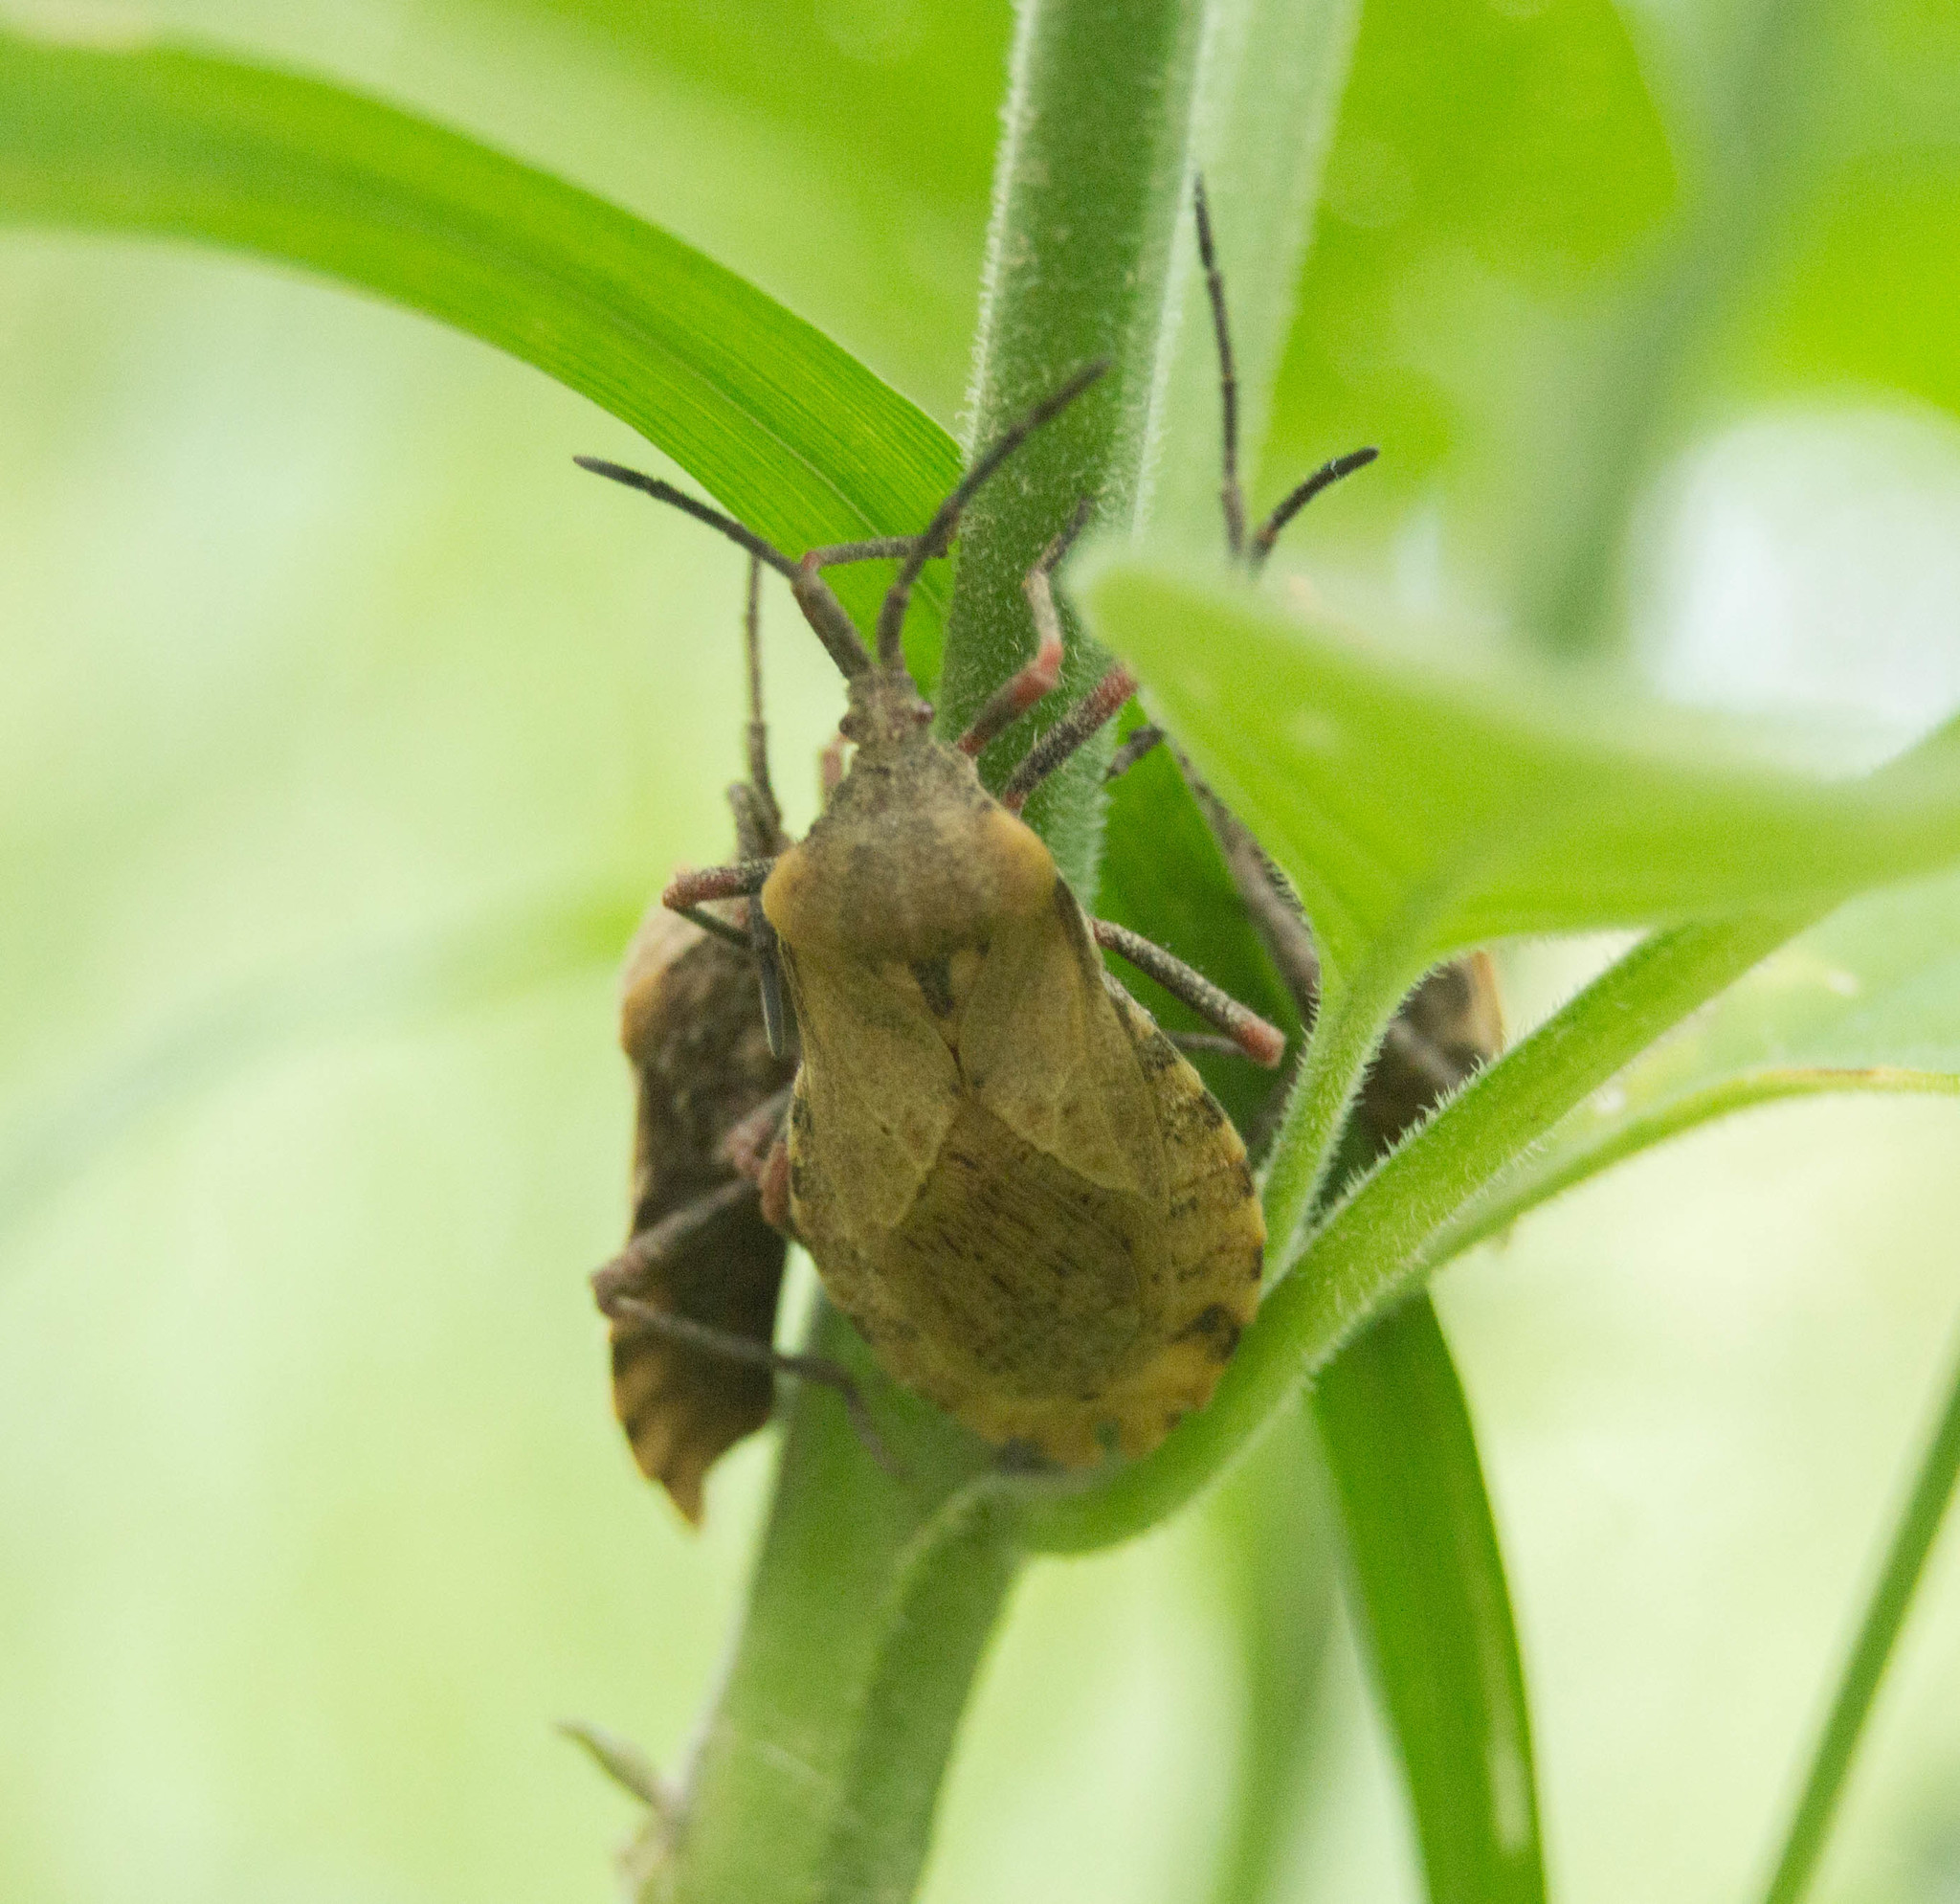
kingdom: Animalia
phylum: Arthropoda
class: Insecta
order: Hemiptera
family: Coreidae
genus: Spartocera
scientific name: Spartocera fusca
